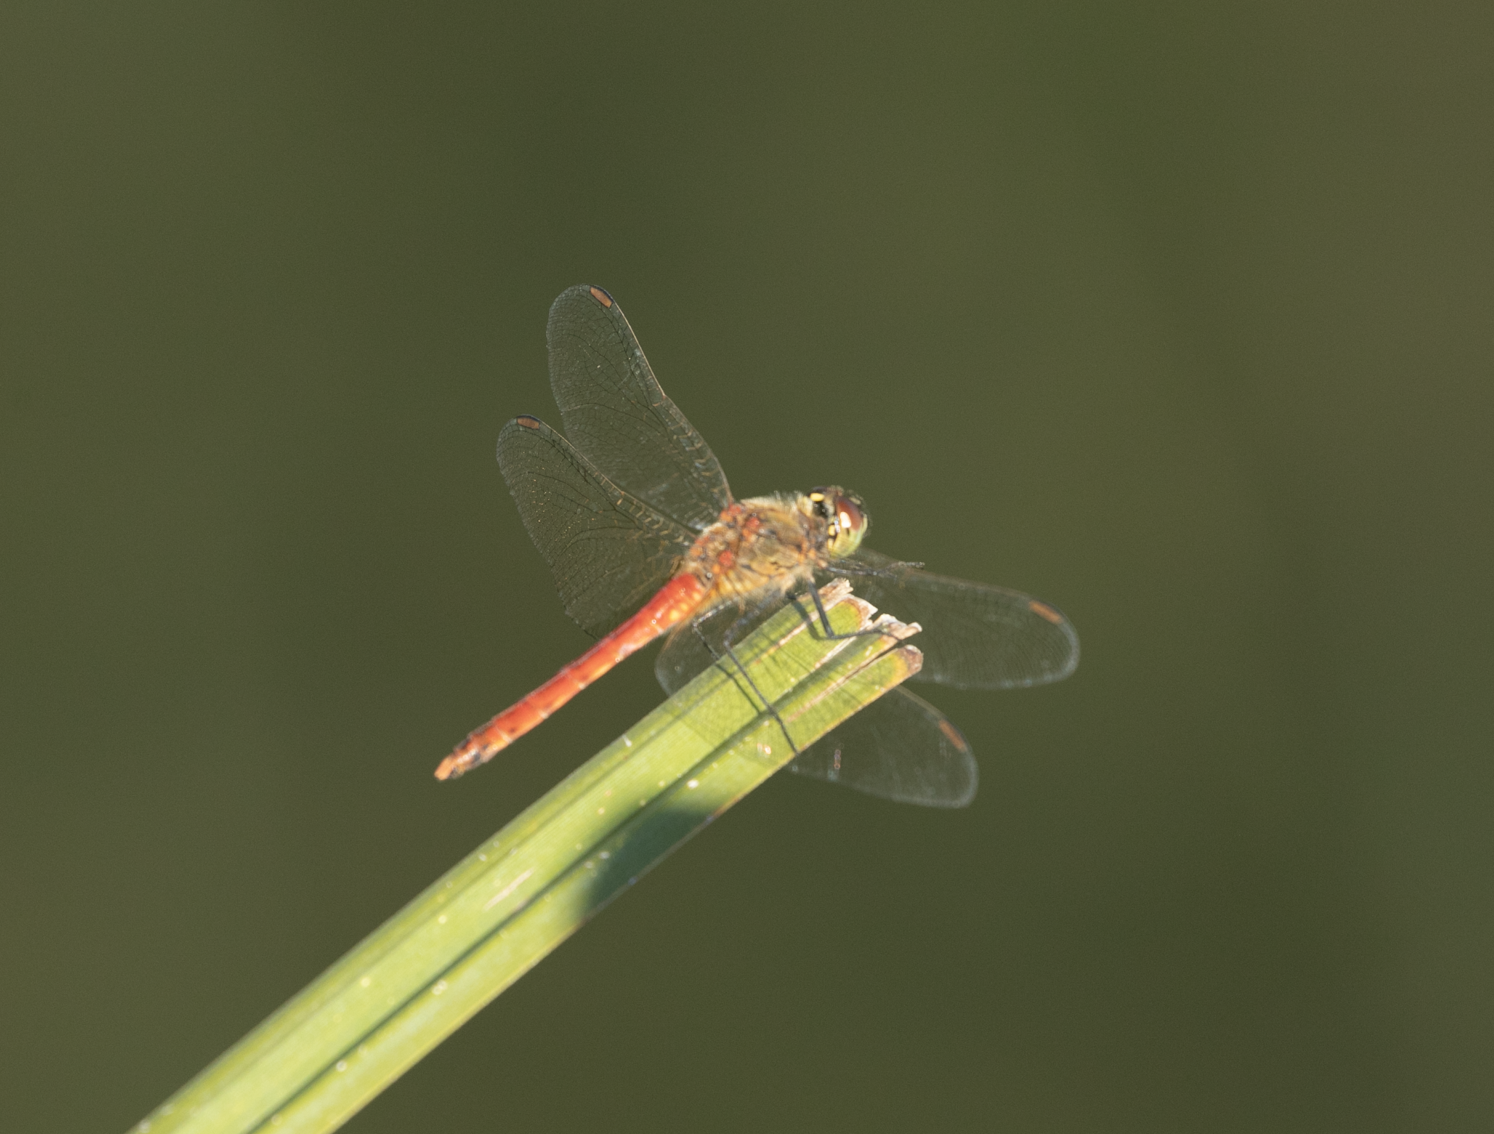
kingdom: Animalia
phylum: Arthropoda
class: Insecta
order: Odonata
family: Libellulidae
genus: Sympetrum
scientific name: Sympetrum depressiusculum
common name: Spotted darter
